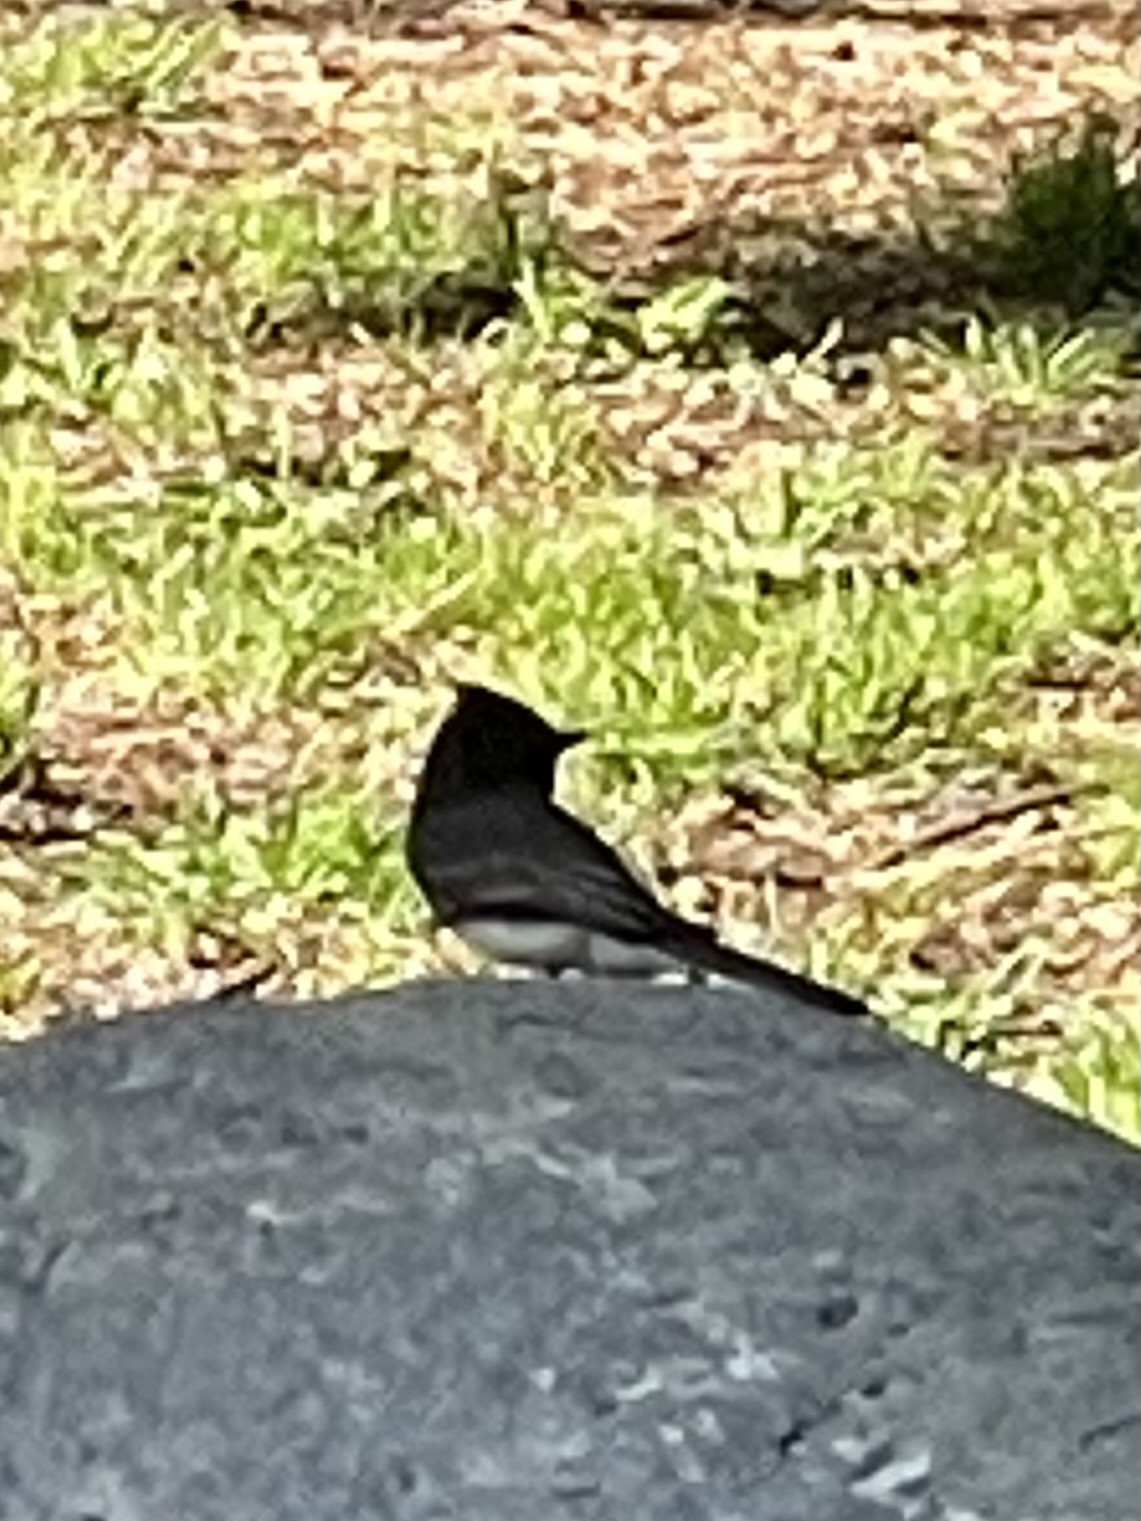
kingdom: Animalia
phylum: Chordata
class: Aves
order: Passeriformes
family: Tyrannidae
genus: Sayornis
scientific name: Sayornis nigricans
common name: Black phoebe
